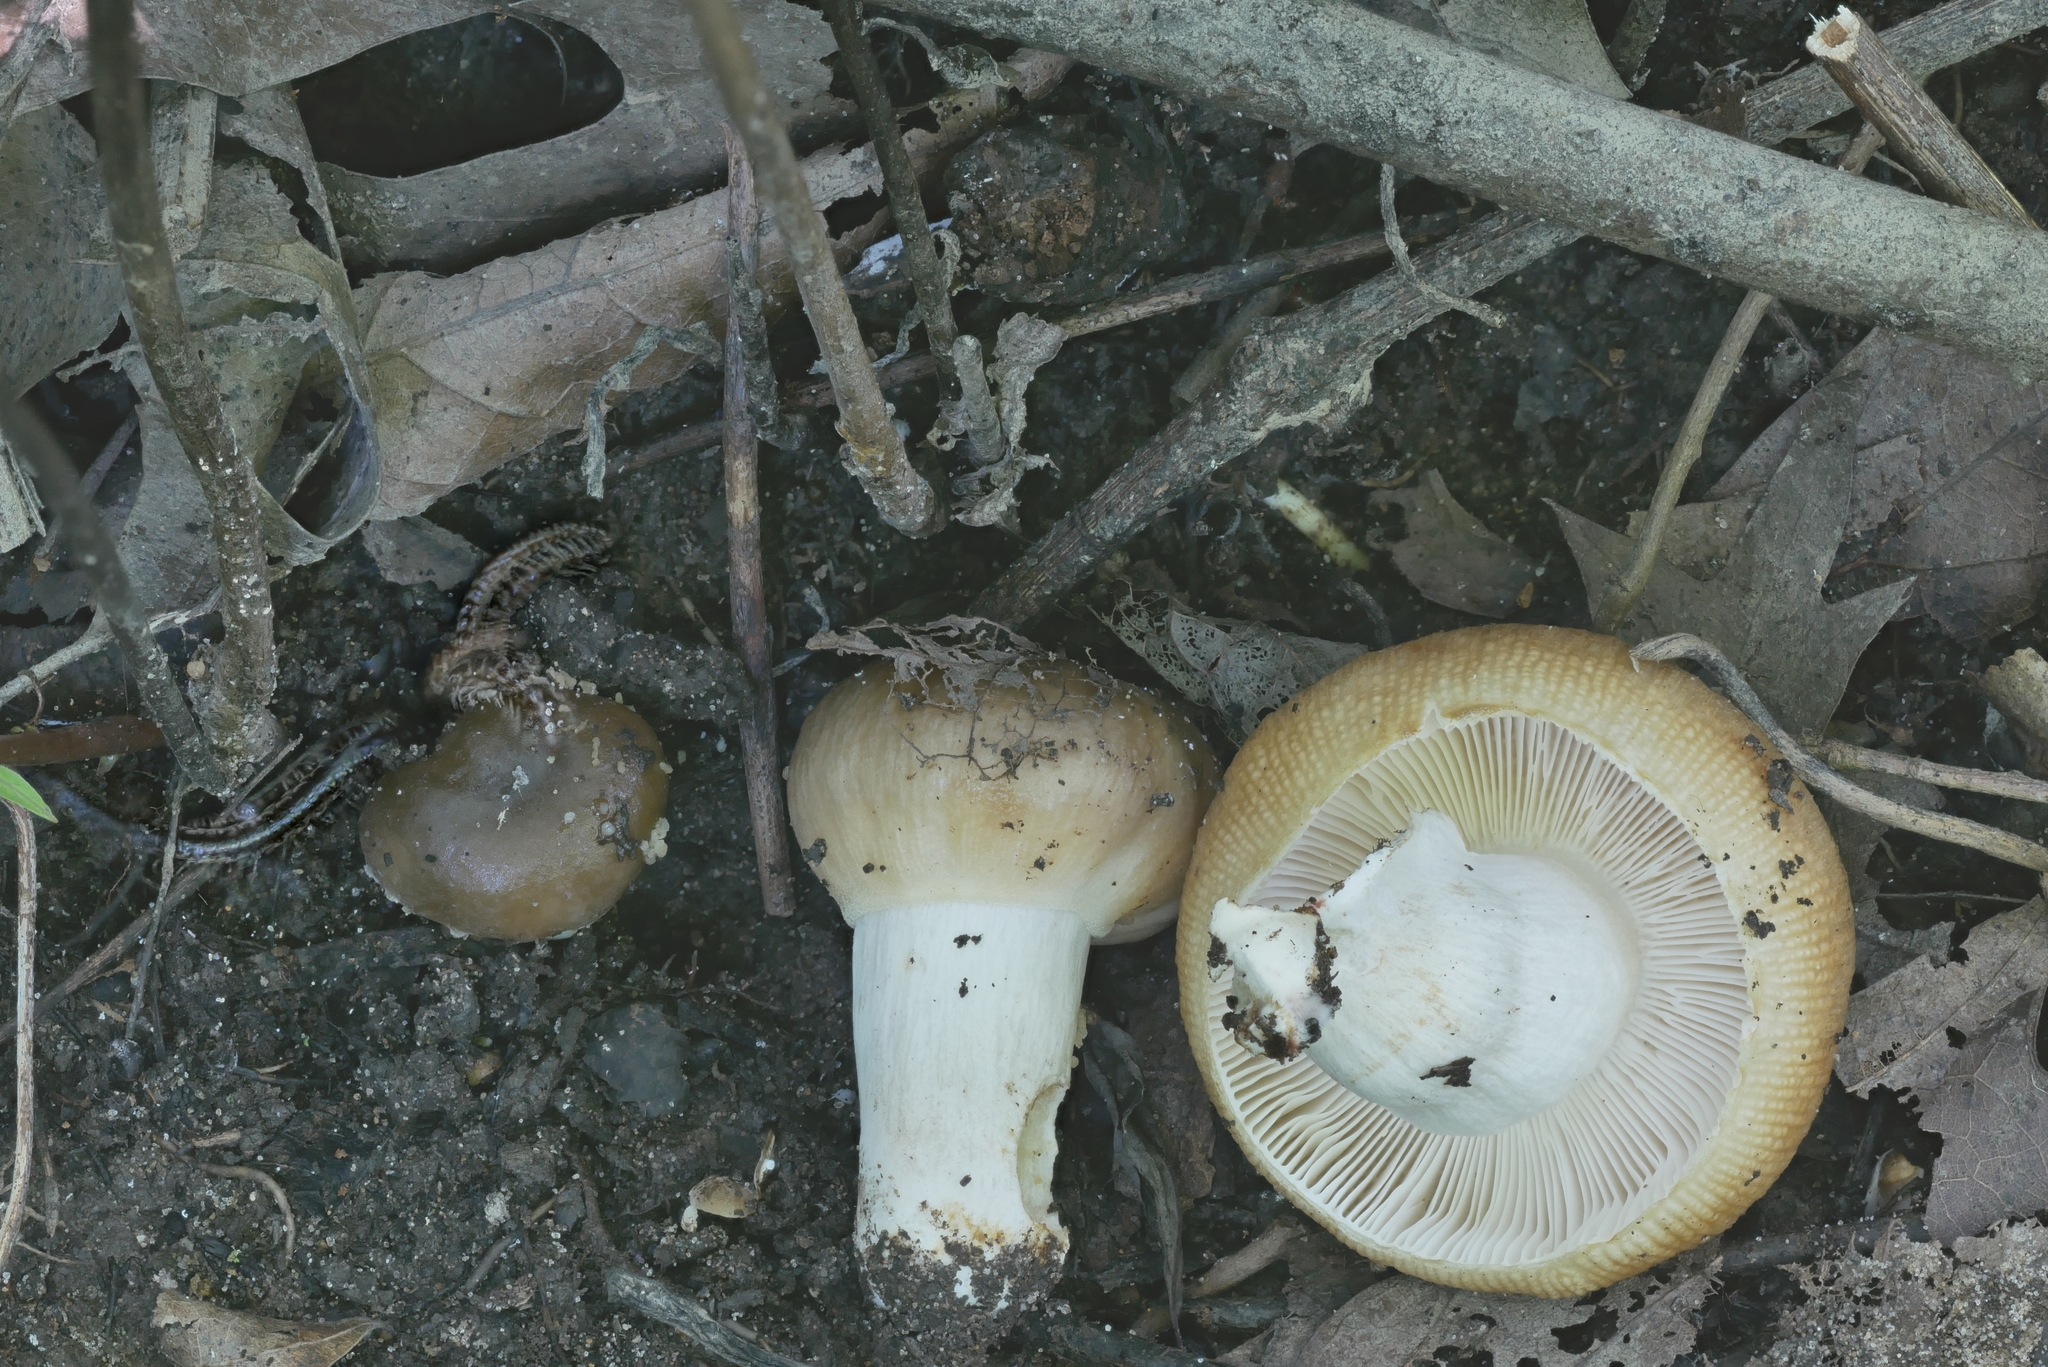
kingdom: Fungi
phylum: Basidiomycota
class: Agaricomycetes
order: Russulales
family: Russulaceae
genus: Russula
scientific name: Russula amerorecondita
